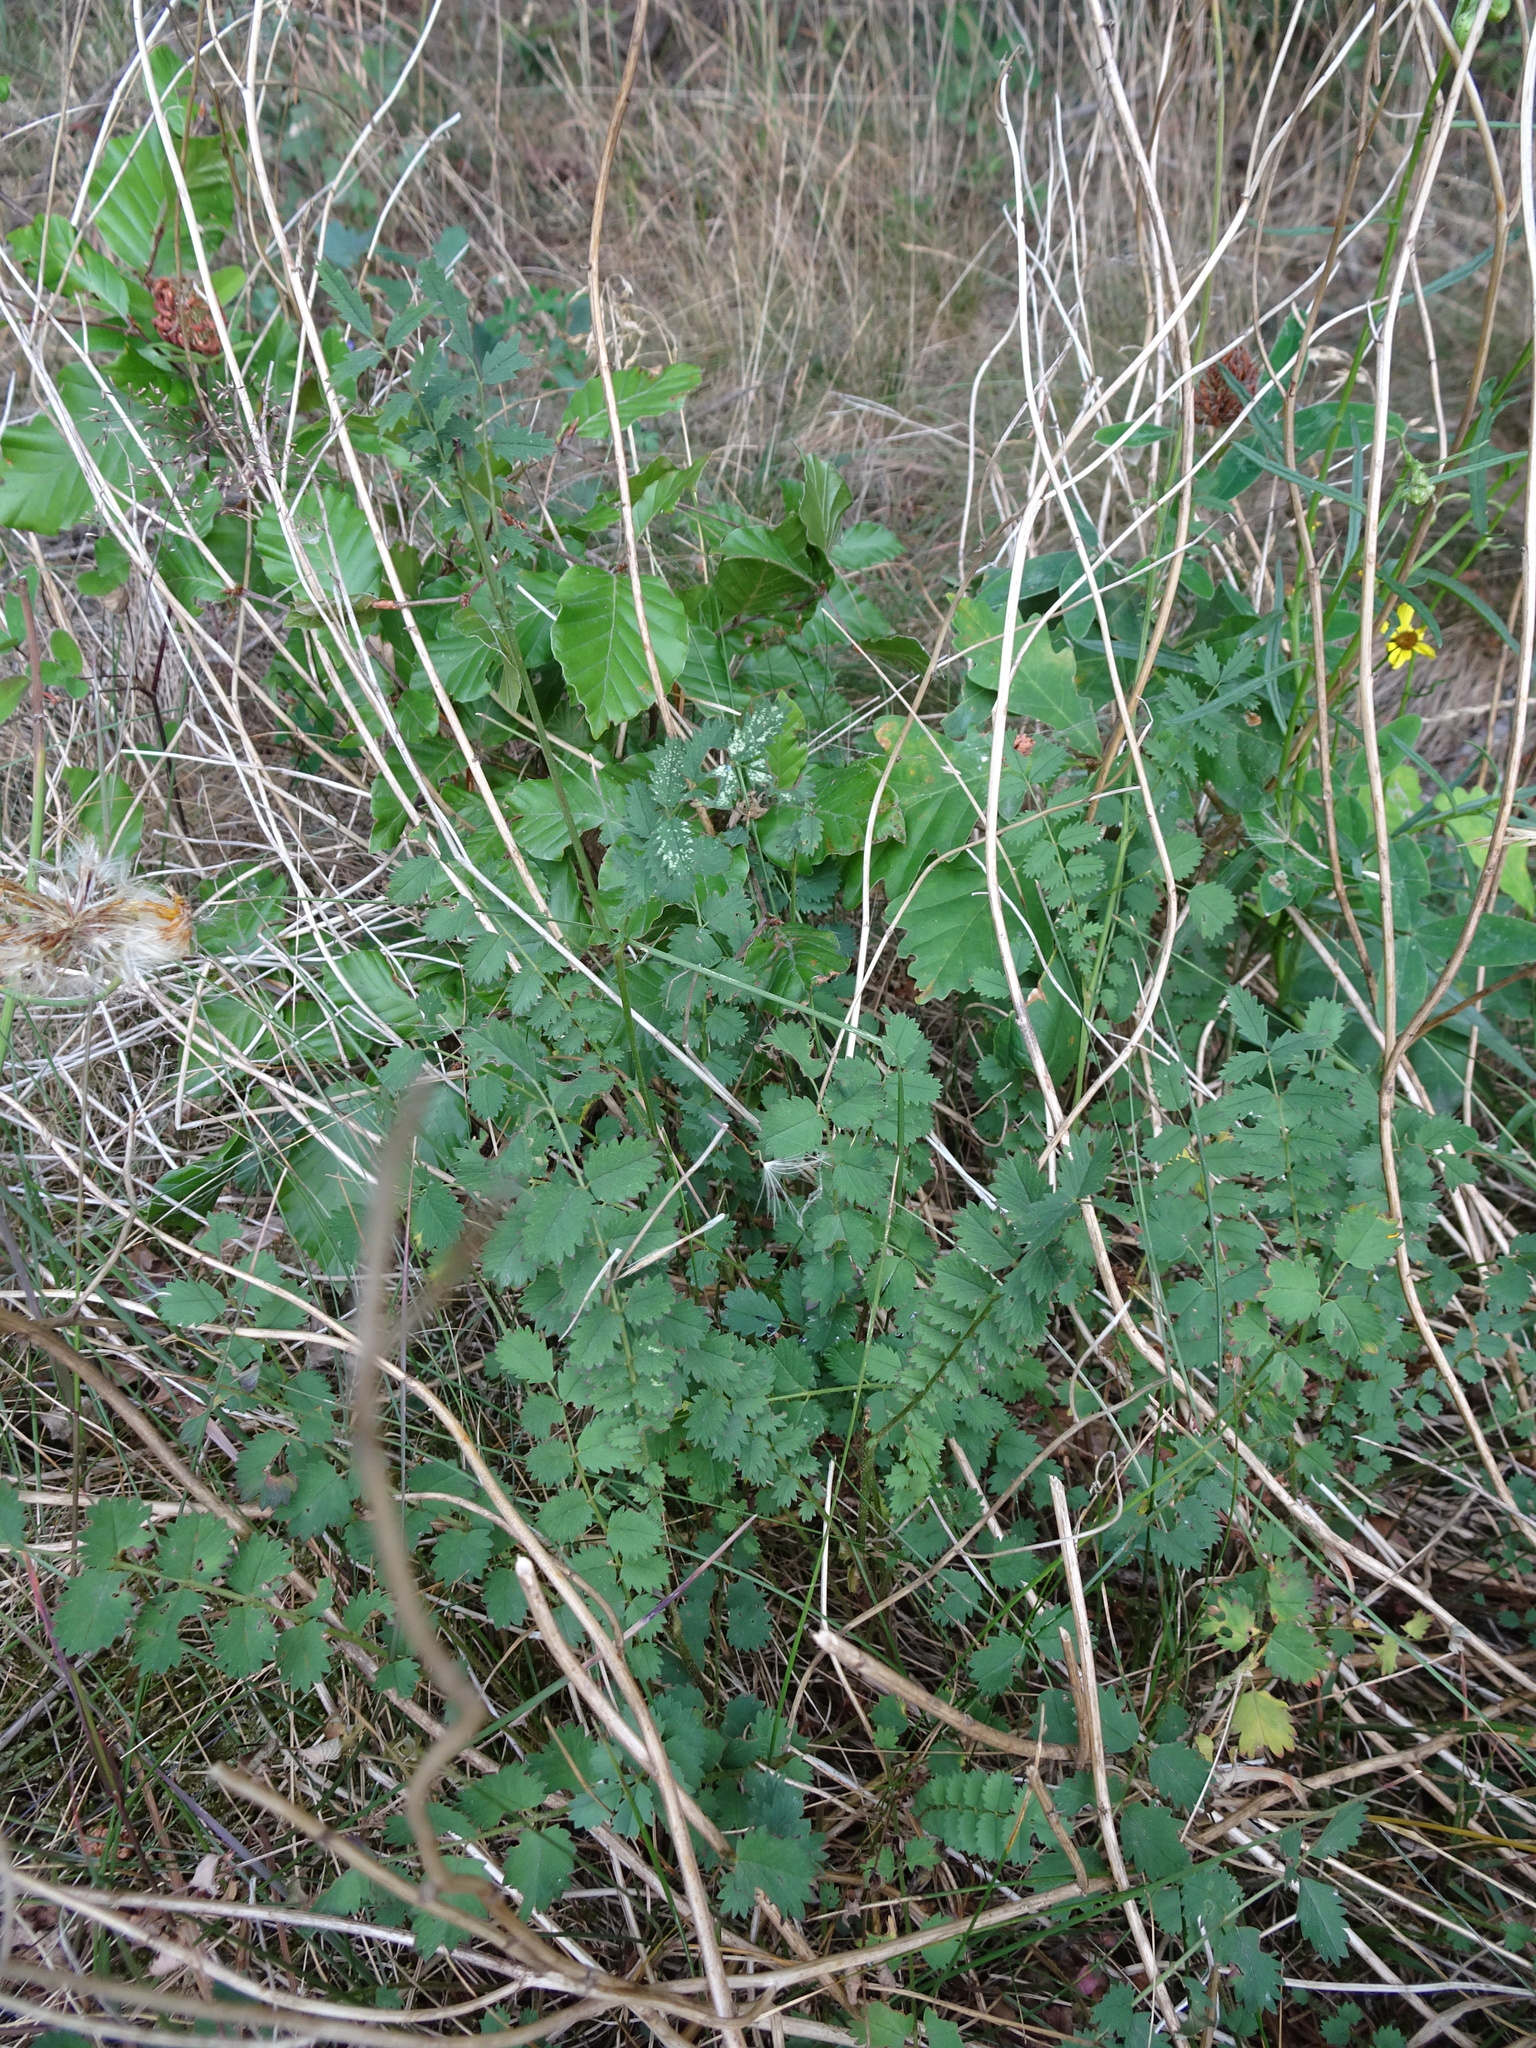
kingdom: Plantae
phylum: Tracheophyta
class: Magnoliopsida
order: Rosales
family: Rosaceae
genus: Poterium
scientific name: Poterium sanguisorba
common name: Salad burnet
